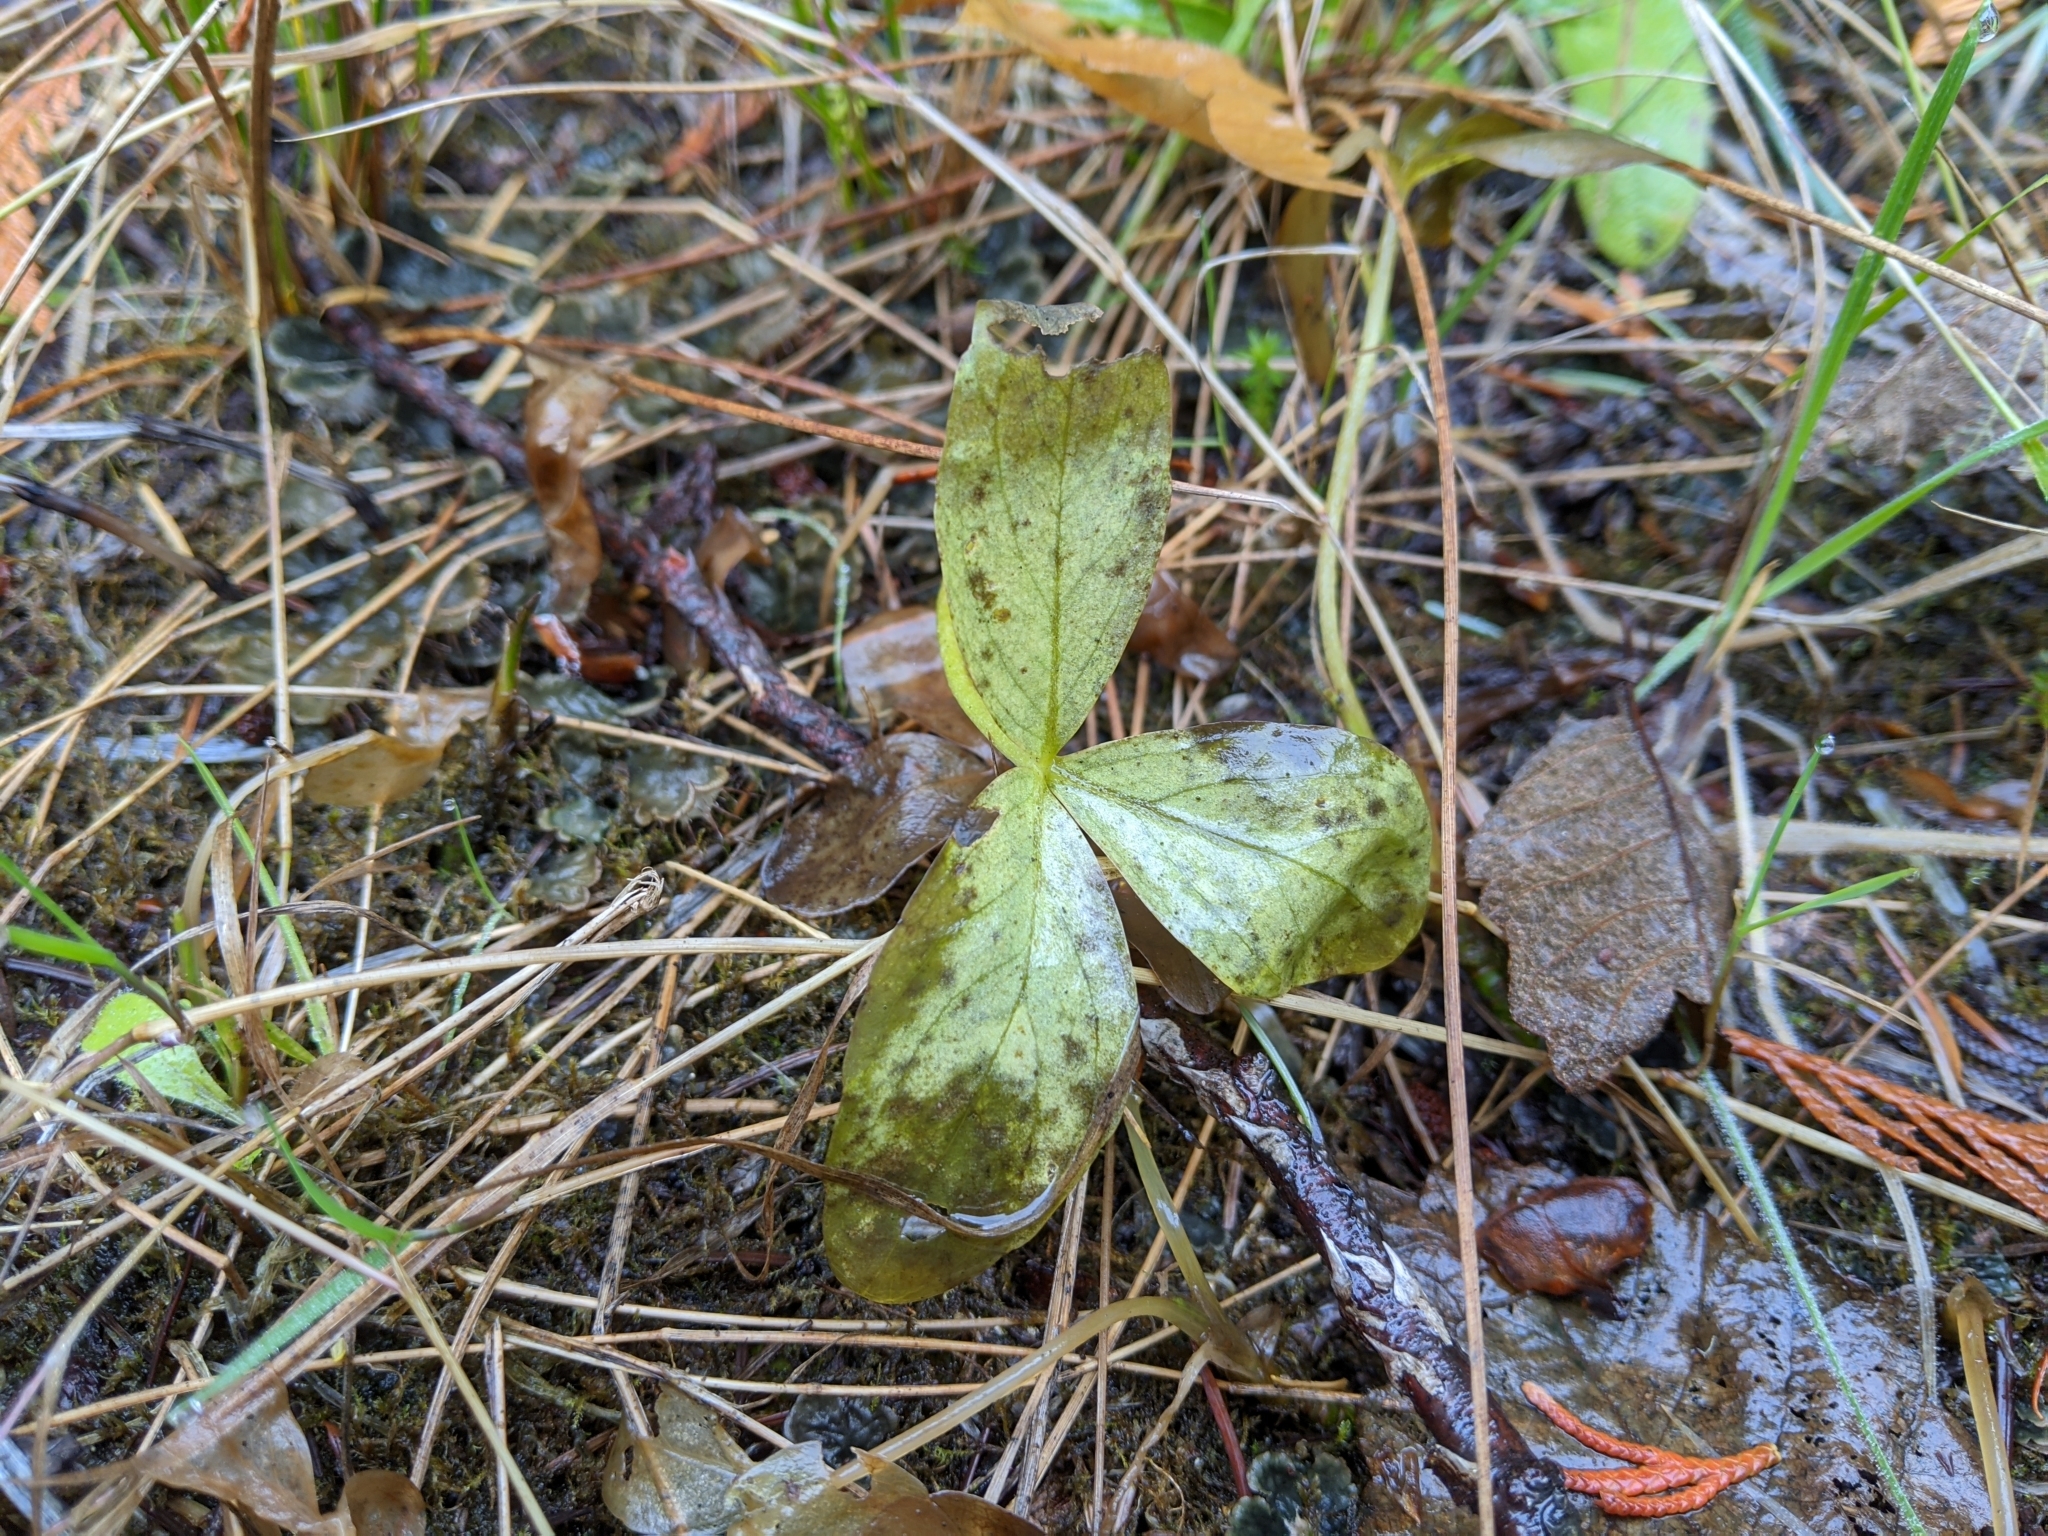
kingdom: Plantae
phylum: Tracheophyta
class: Magnoliopsida
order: Asterales
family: Menyanthaceae
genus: Menyanthes
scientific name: Menyanthes trifoliata
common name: Bogbean
